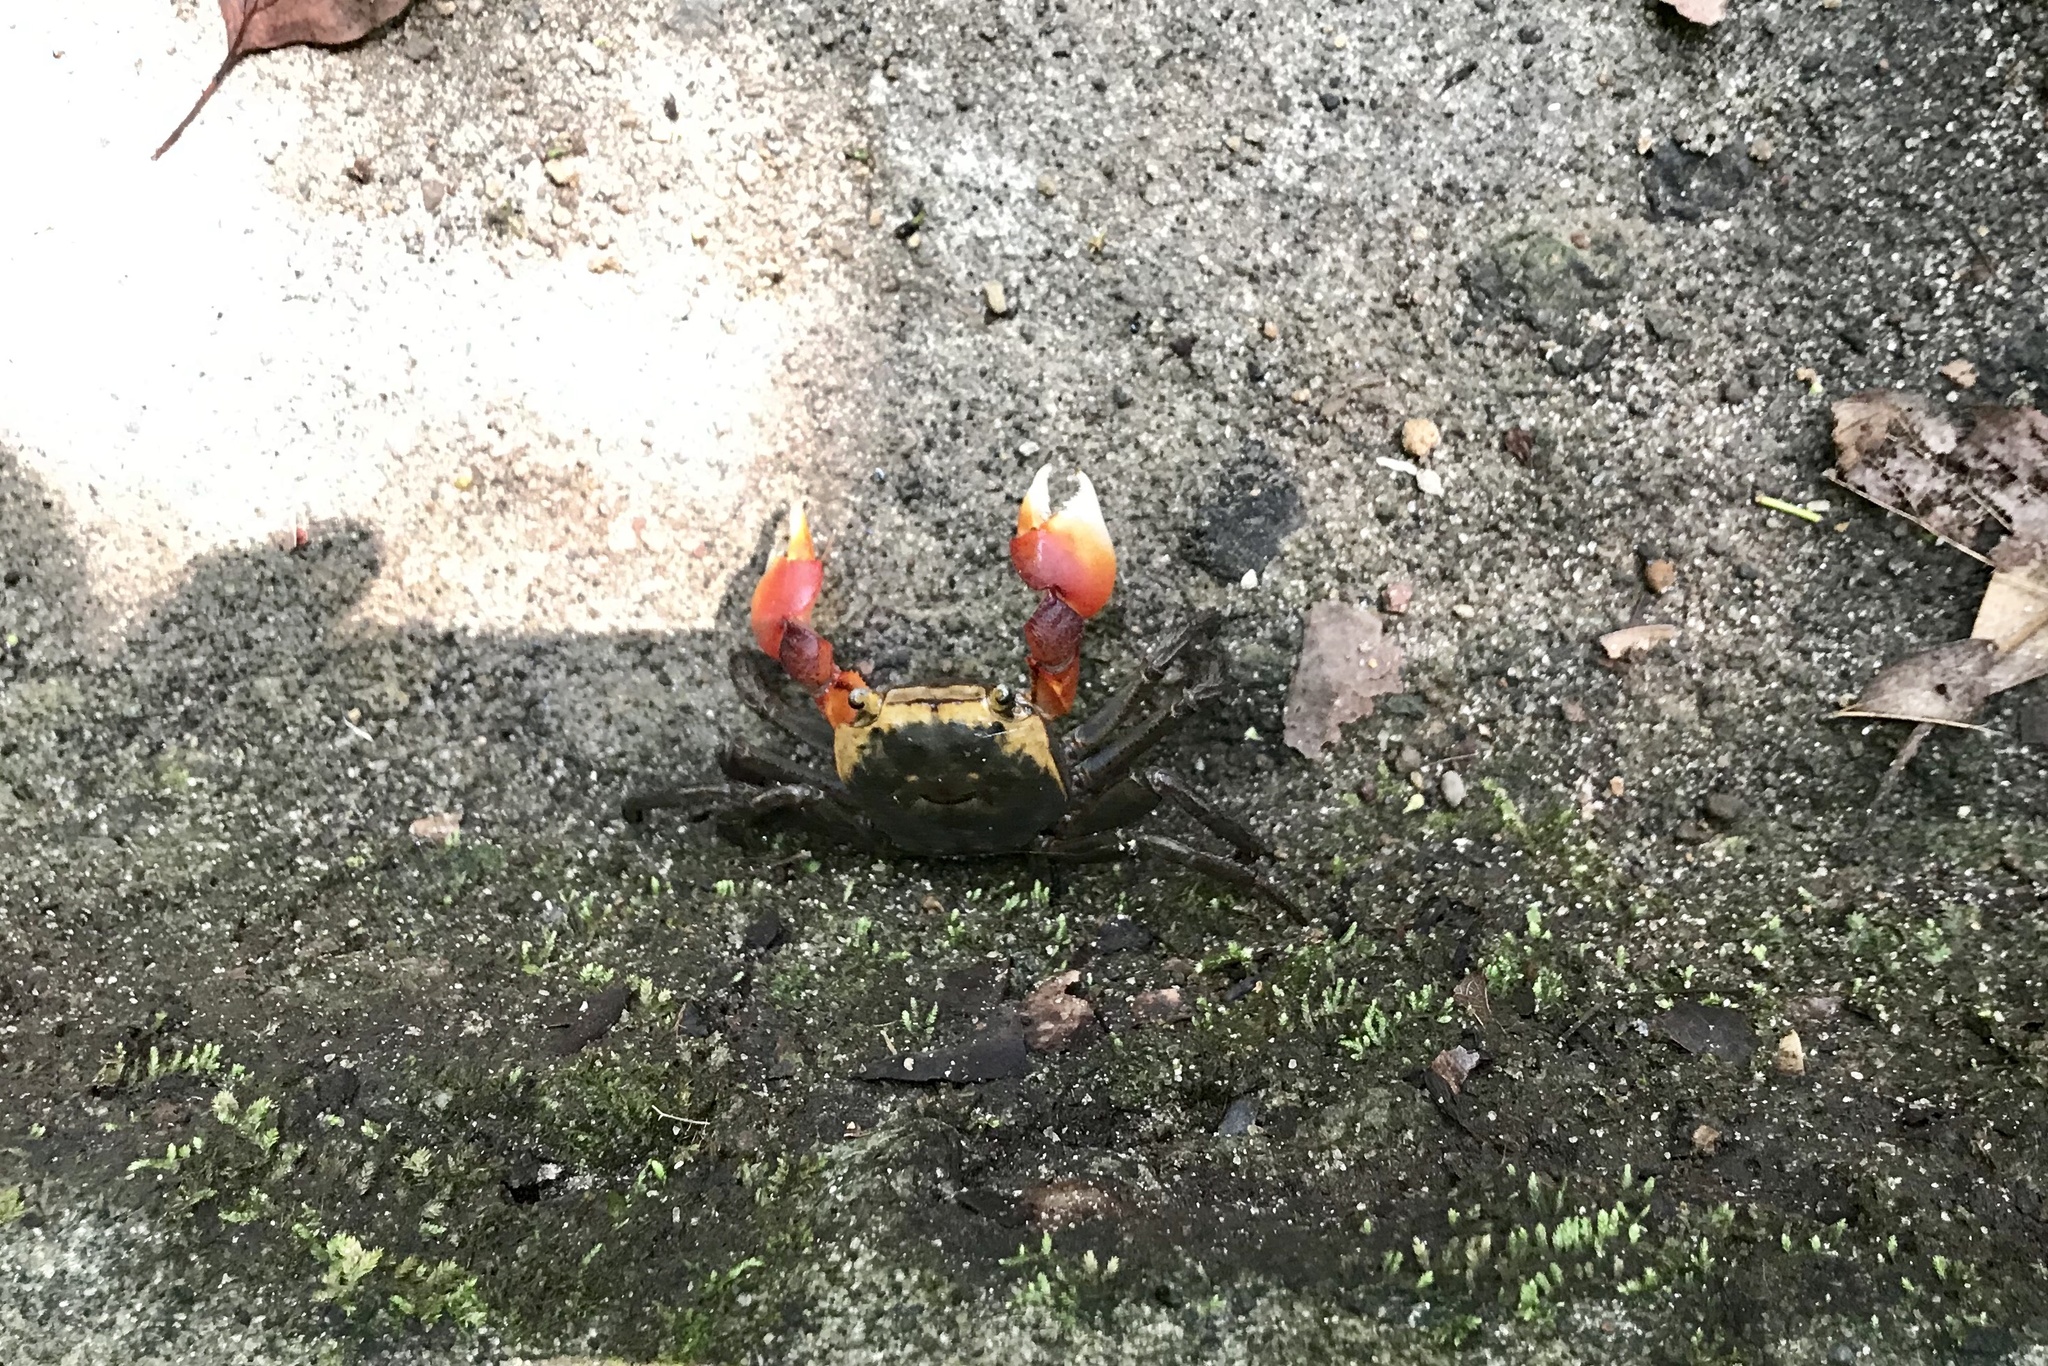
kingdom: Animalia
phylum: Arthropoda
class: Malacostraca
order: Decapoda
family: Sesarmidae
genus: Chiromantes
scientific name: Chiromantes haematocheir
